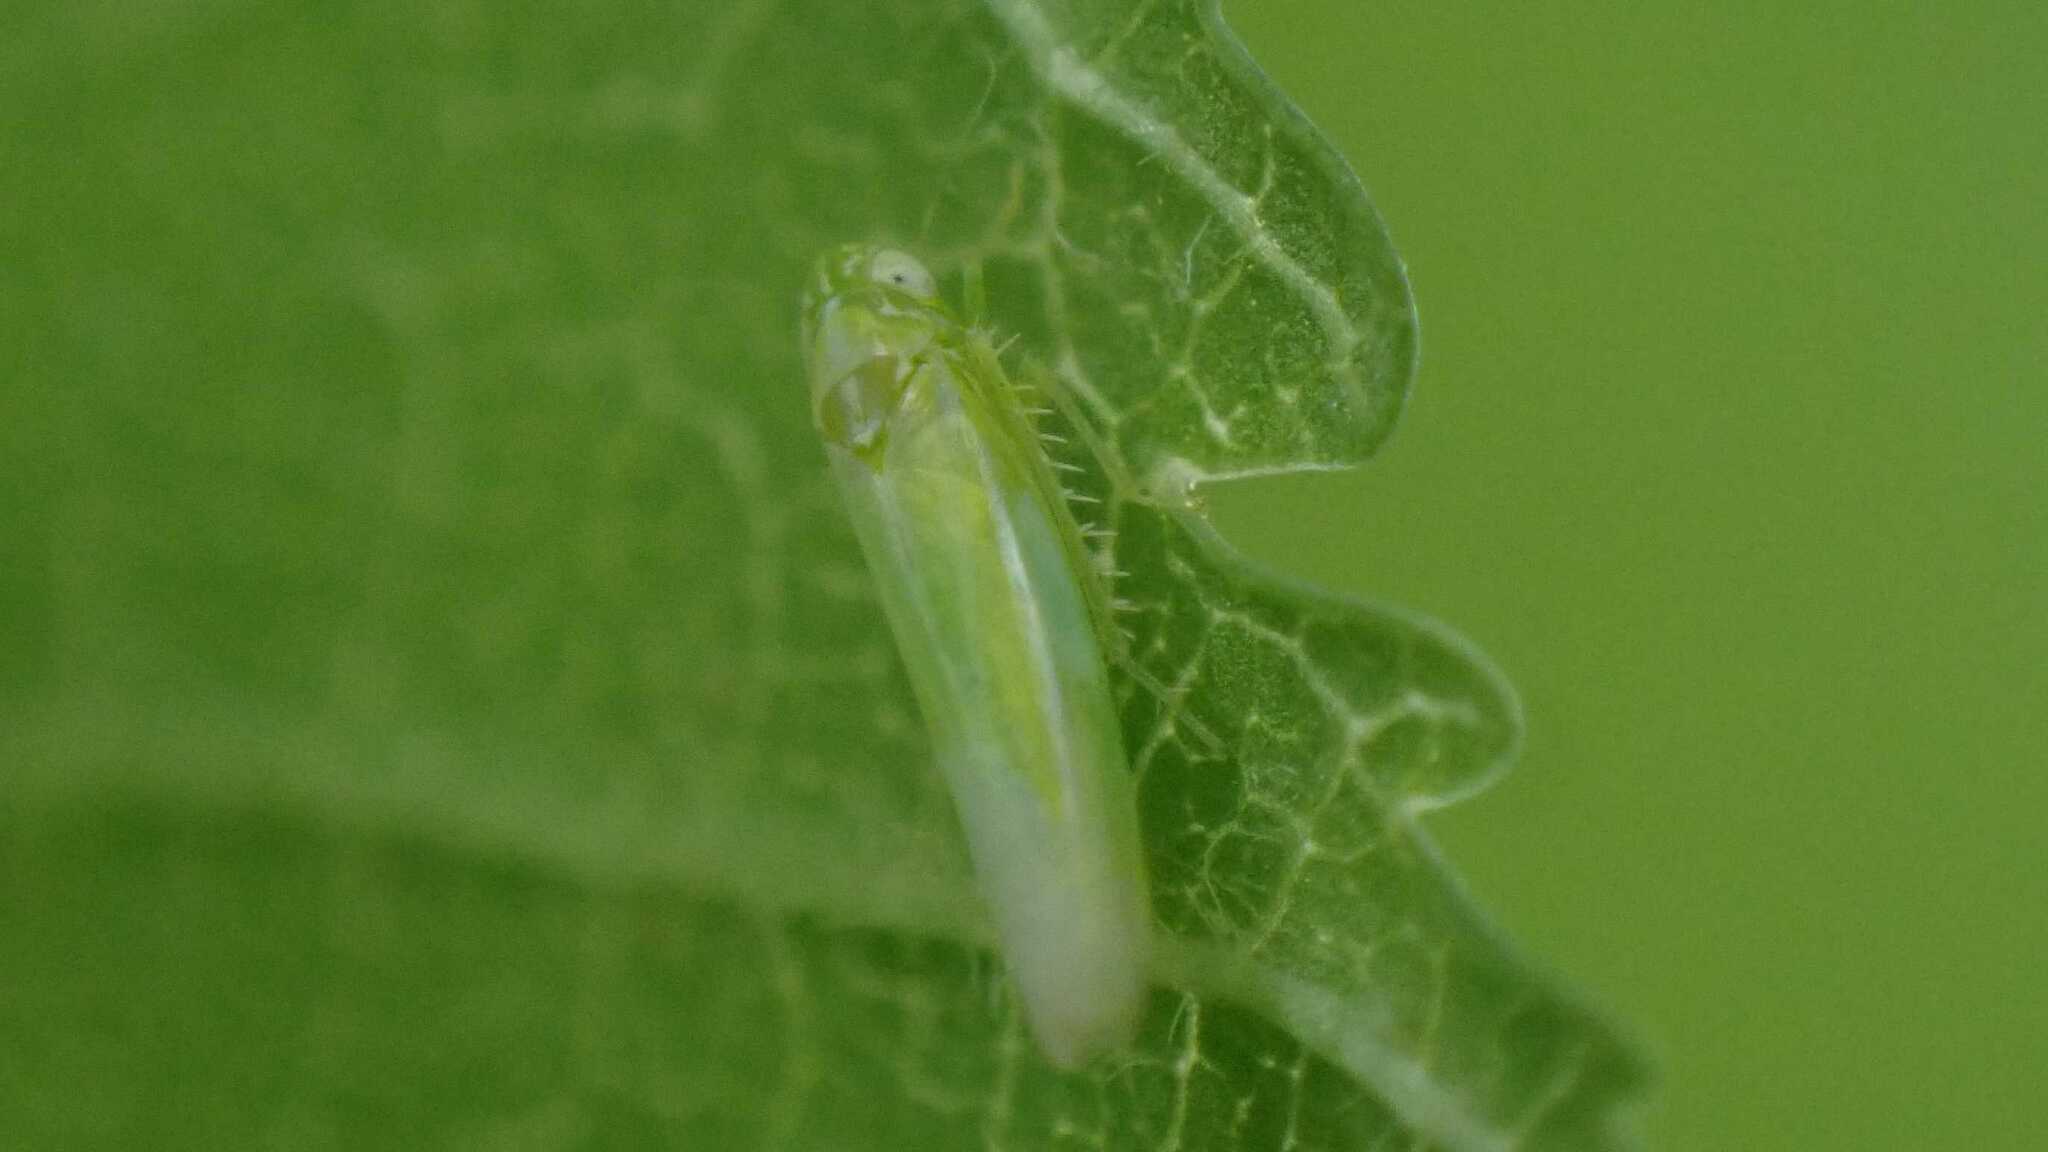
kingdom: Animalia
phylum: Arthropoda
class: Insecta
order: Hemiptera
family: Cicadellidae
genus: Hebata
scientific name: Hebata vitis
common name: The smaller green leafhopper
